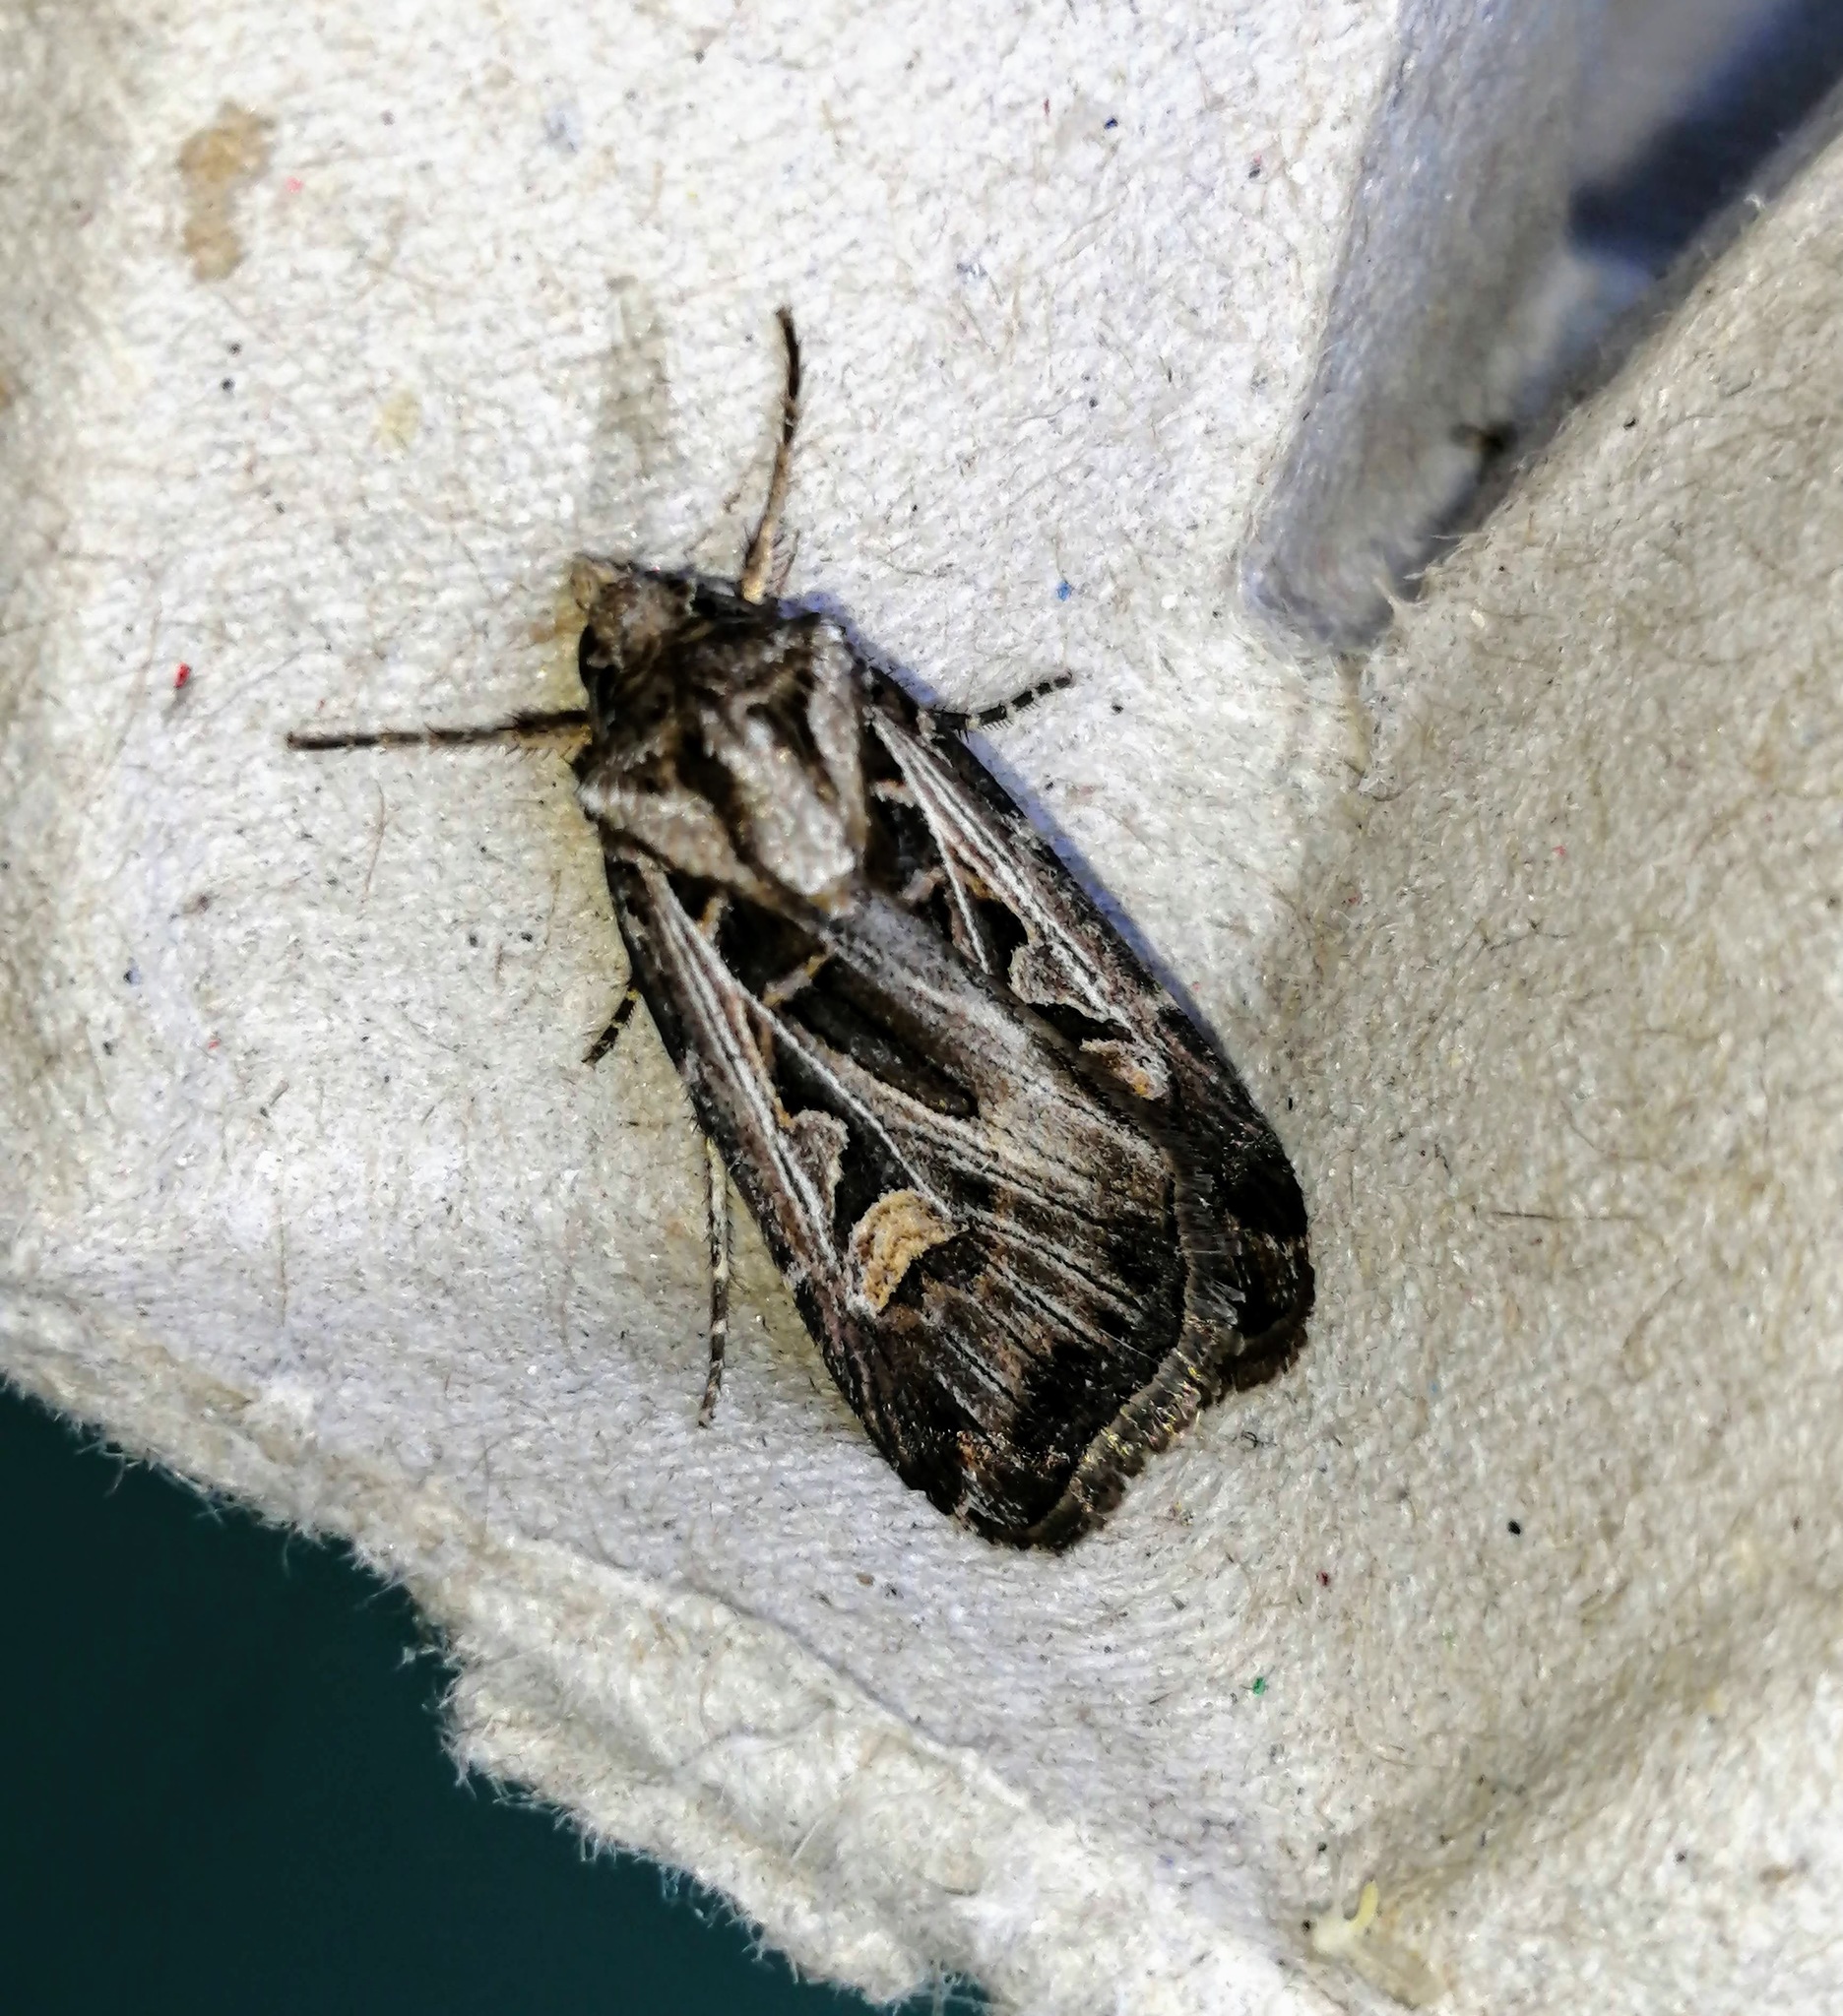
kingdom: Animalia
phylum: Arthropoda
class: Insecta
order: Lepidoptera
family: Noctuidae
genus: Feltia
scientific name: Feltia jaculifera
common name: Dingy cutworm moth
